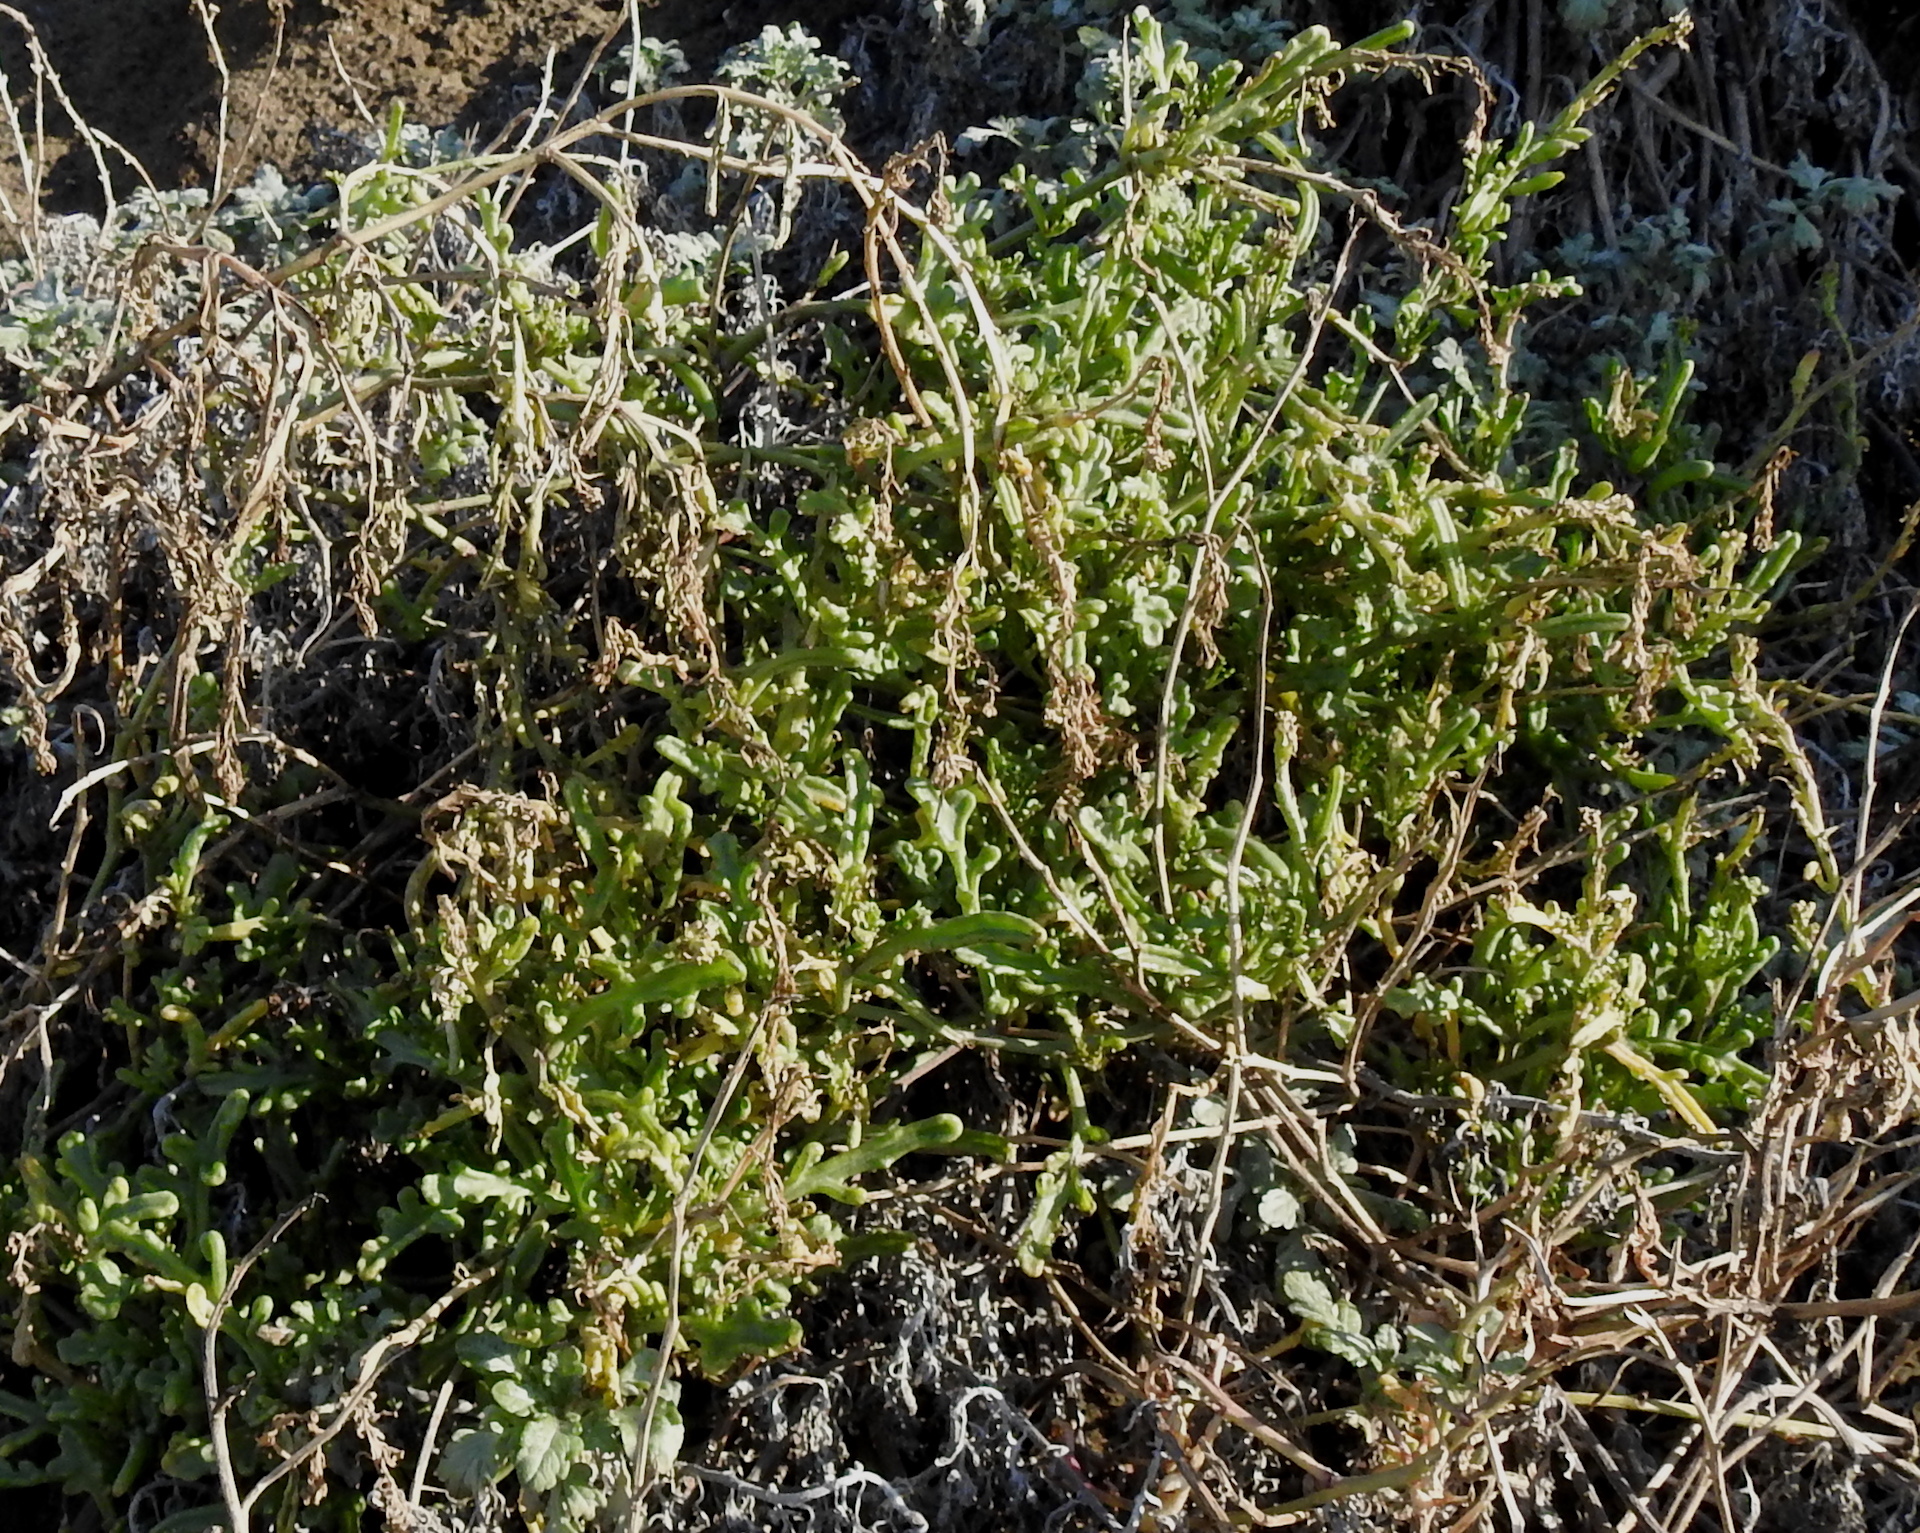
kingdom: Plantae
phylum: Tracheophyta
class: Magnoliopsida
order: Asterales
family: Asteraceae
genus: Eriophyllum
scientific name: Eriophyllum staechadifolium
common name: Lizardtail
